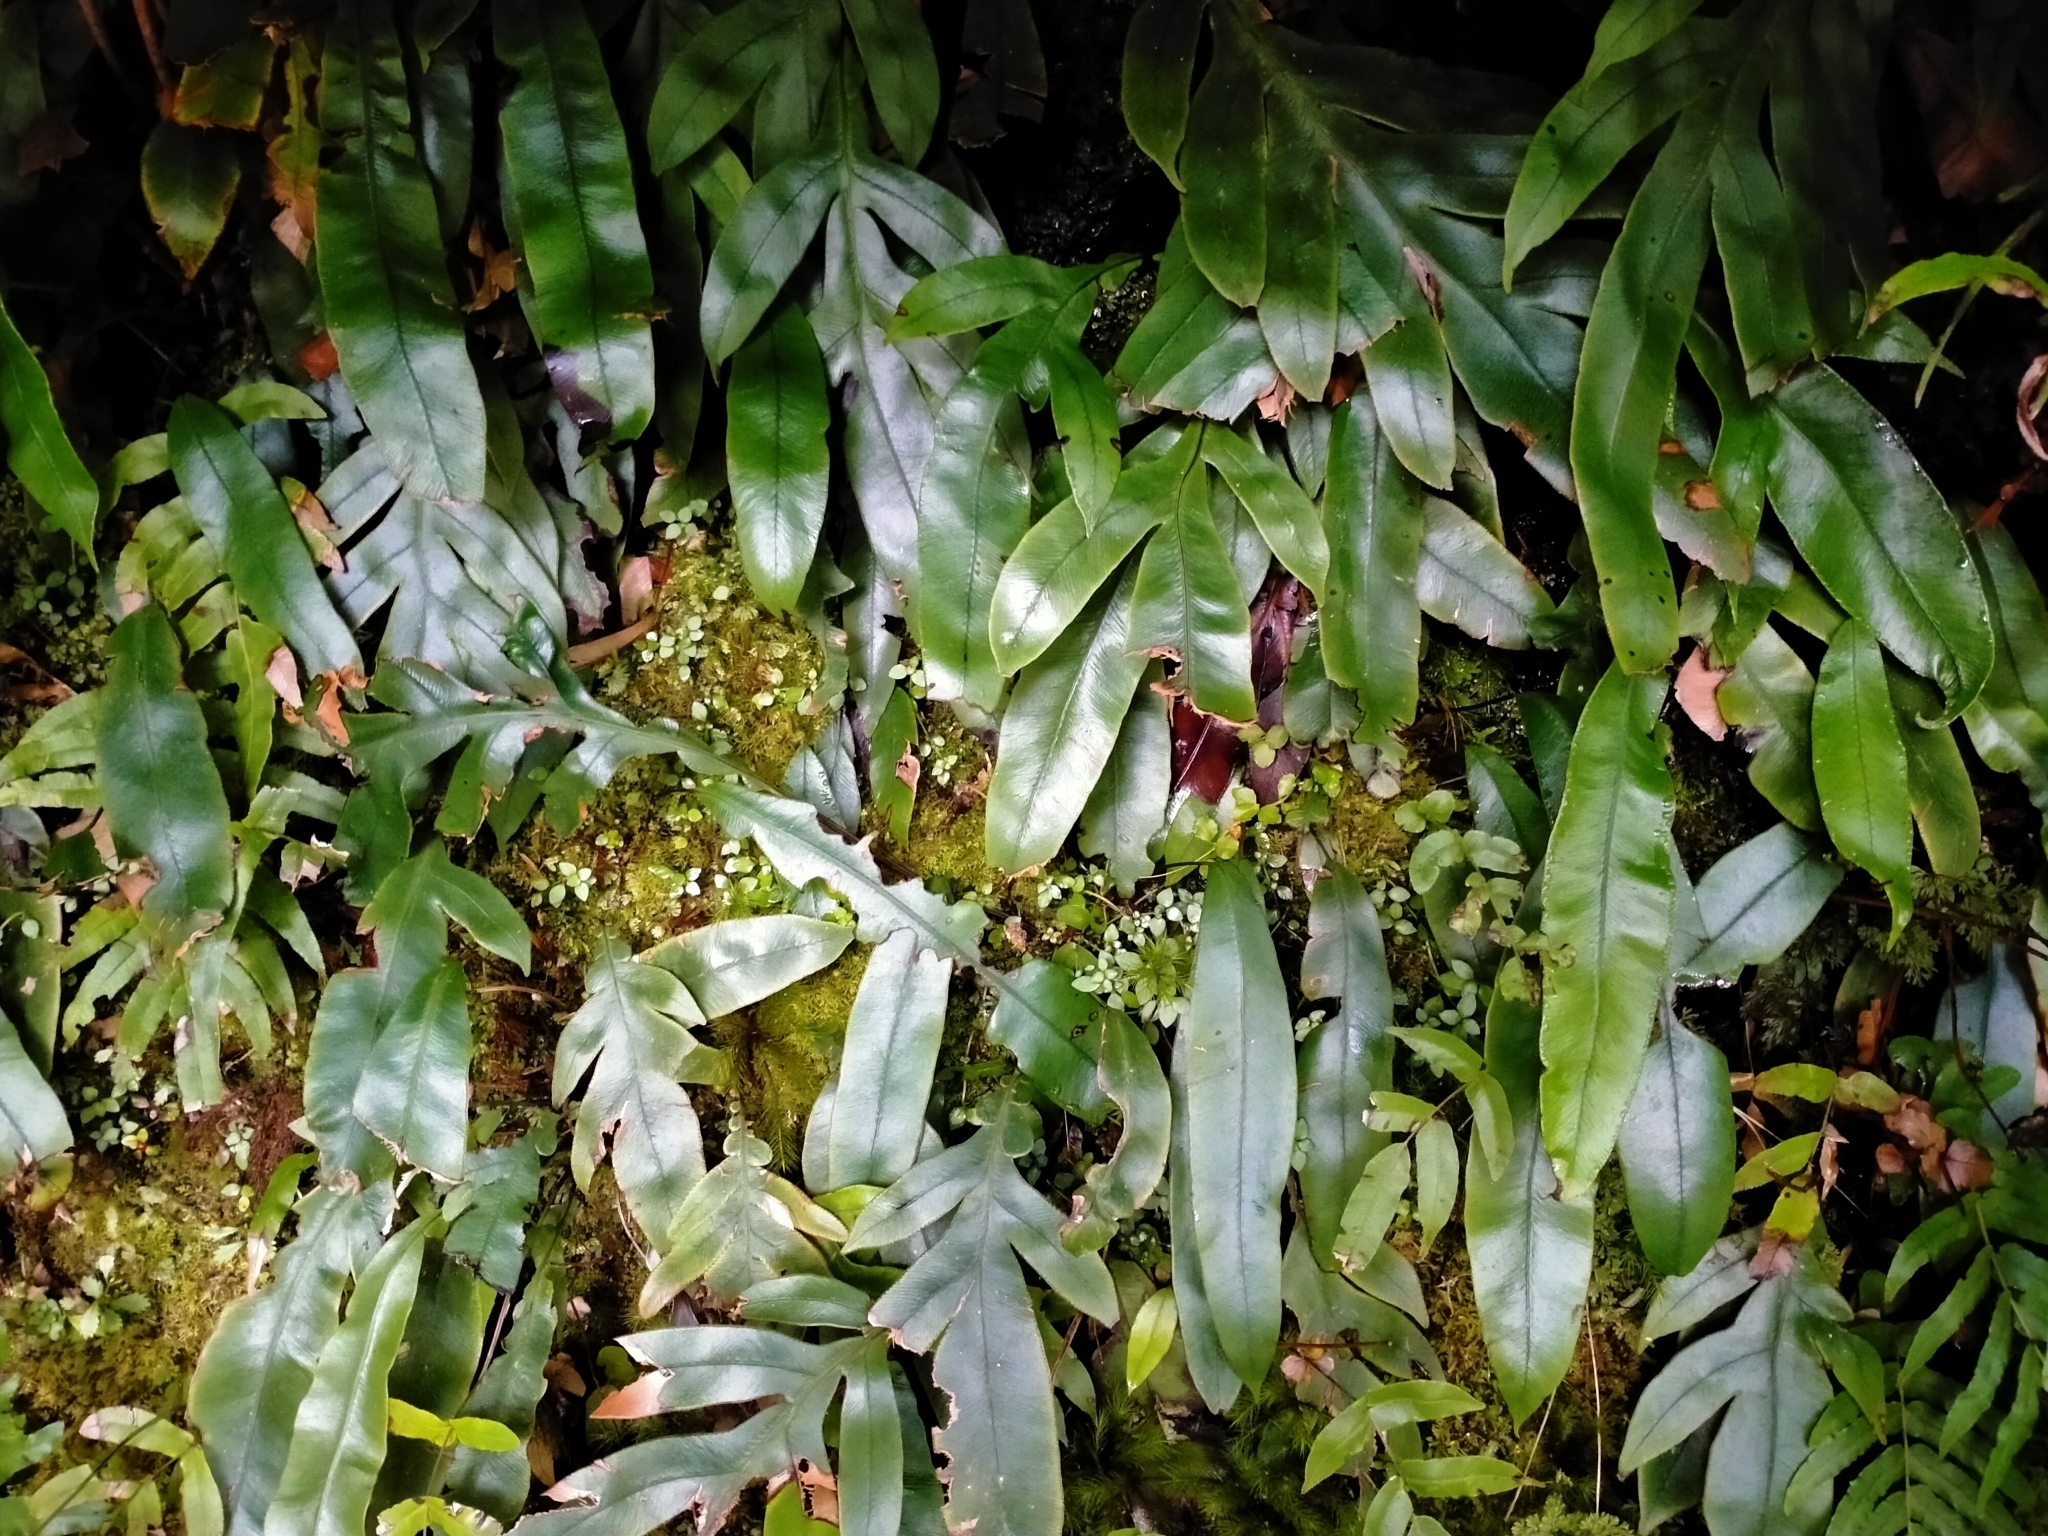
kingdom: Plantae
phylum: Tracheophyta
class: Polypodiopsida
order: Polypodiales
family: Blechnaceae
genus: Austroblechnum
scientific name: Austroblechnum colensoi
